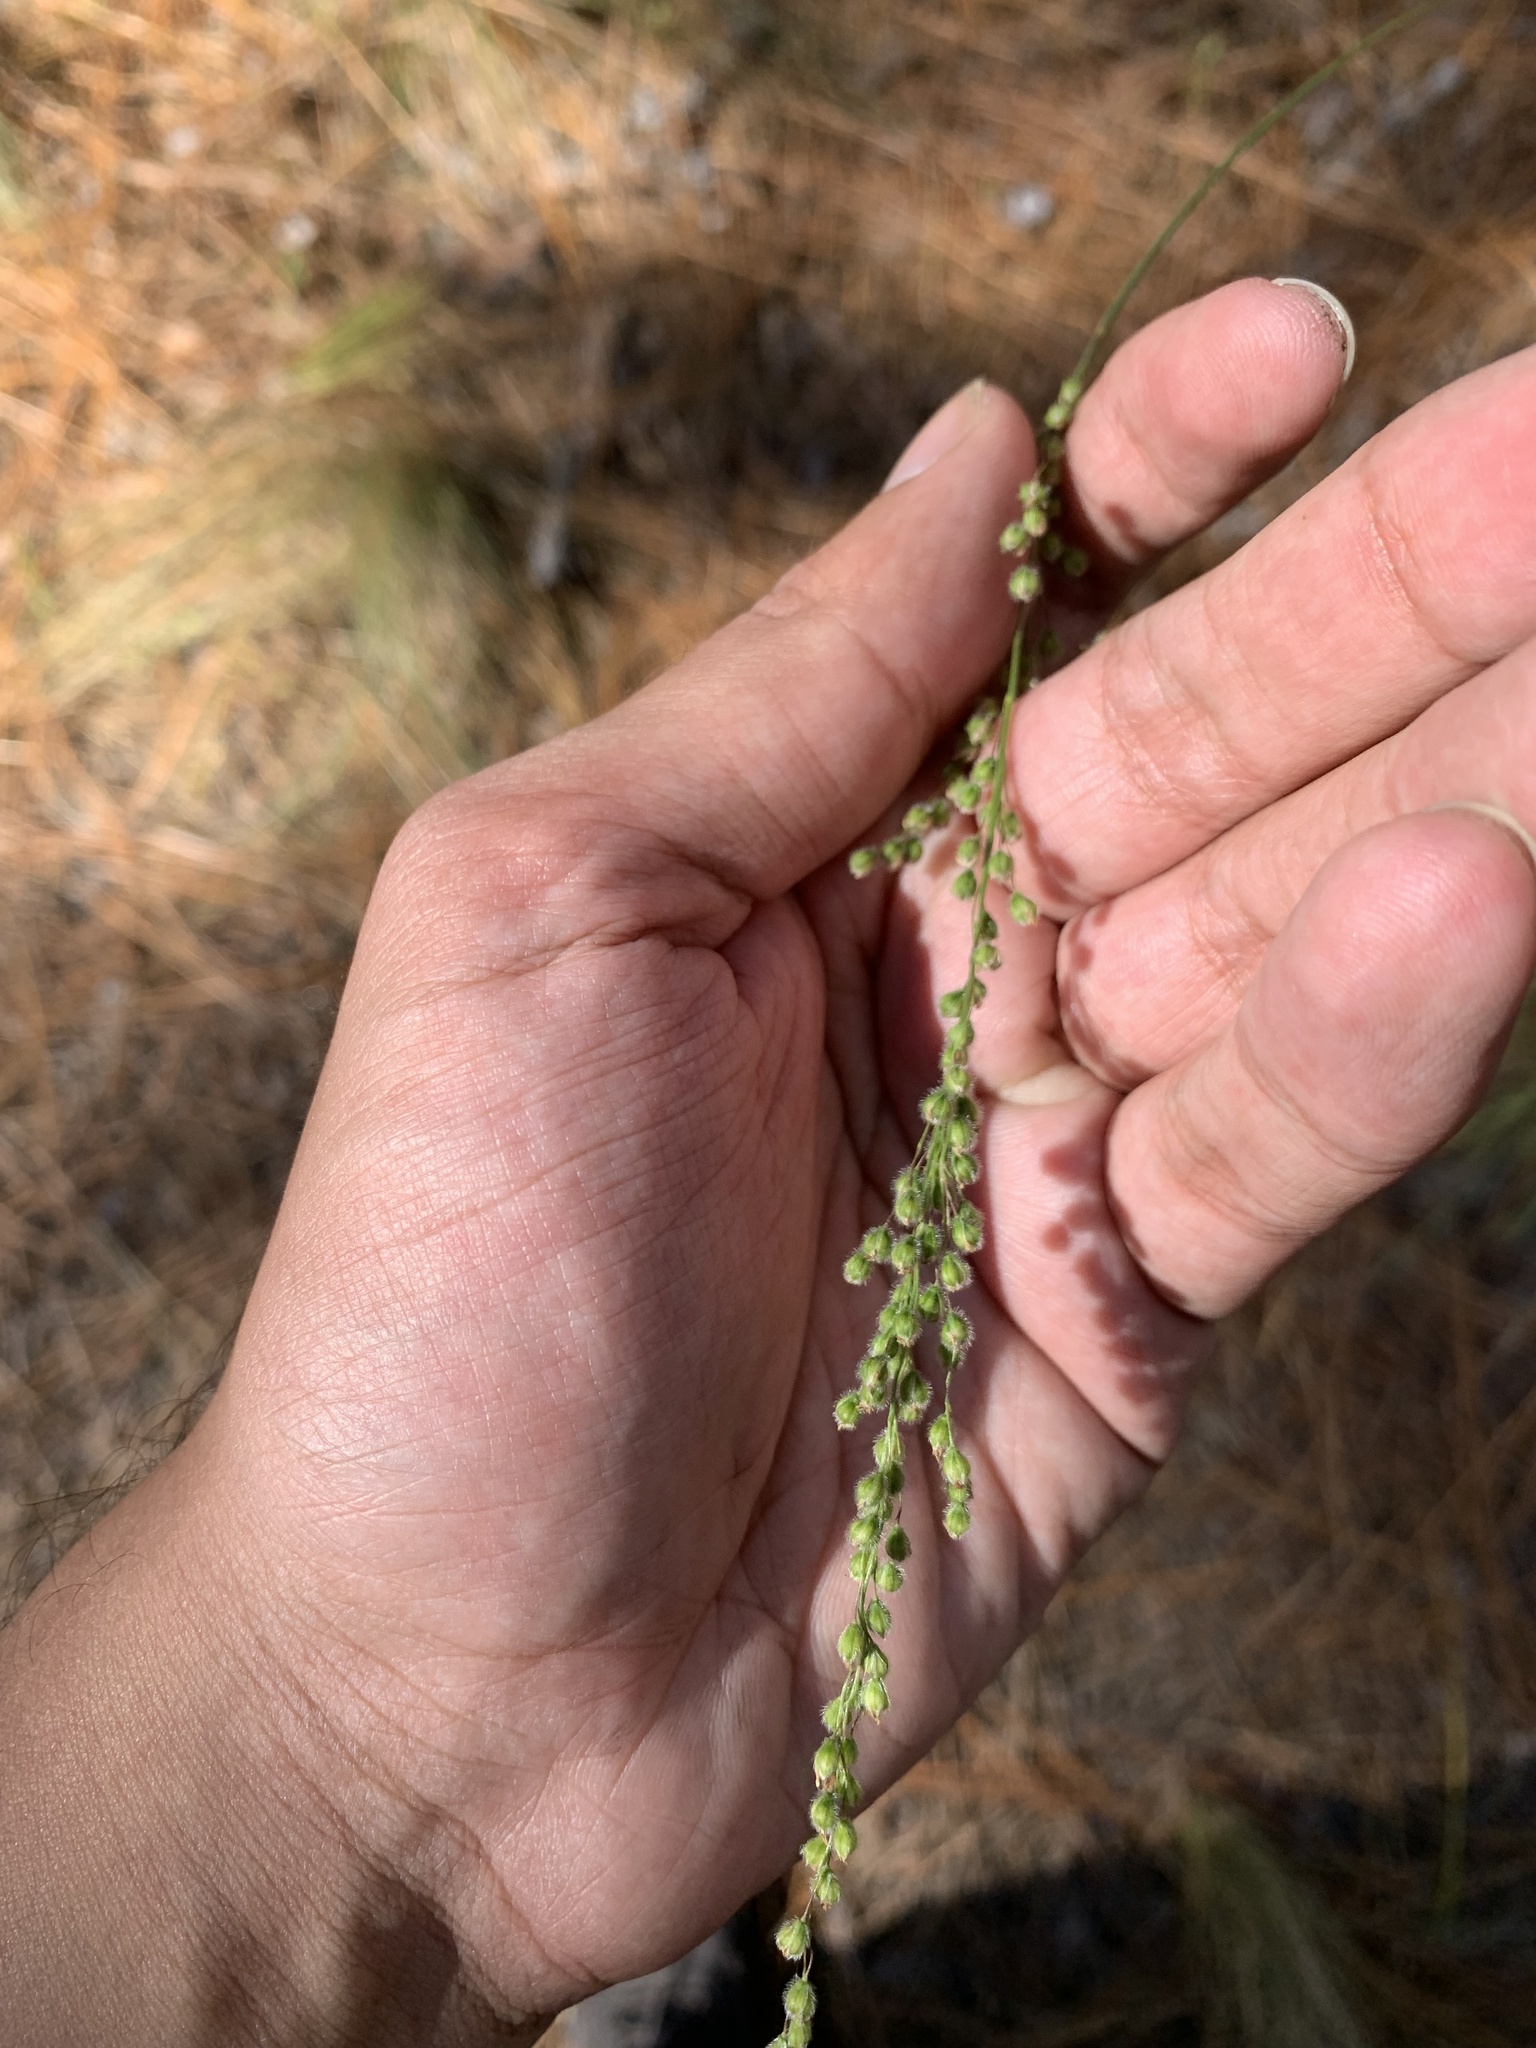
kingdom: Plantae
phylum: Tracheophyta
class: Liliopsida
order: Poales
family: Poaceae
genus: Anthenantia
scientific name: Anthenantia villosa
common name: Green silkyscale
